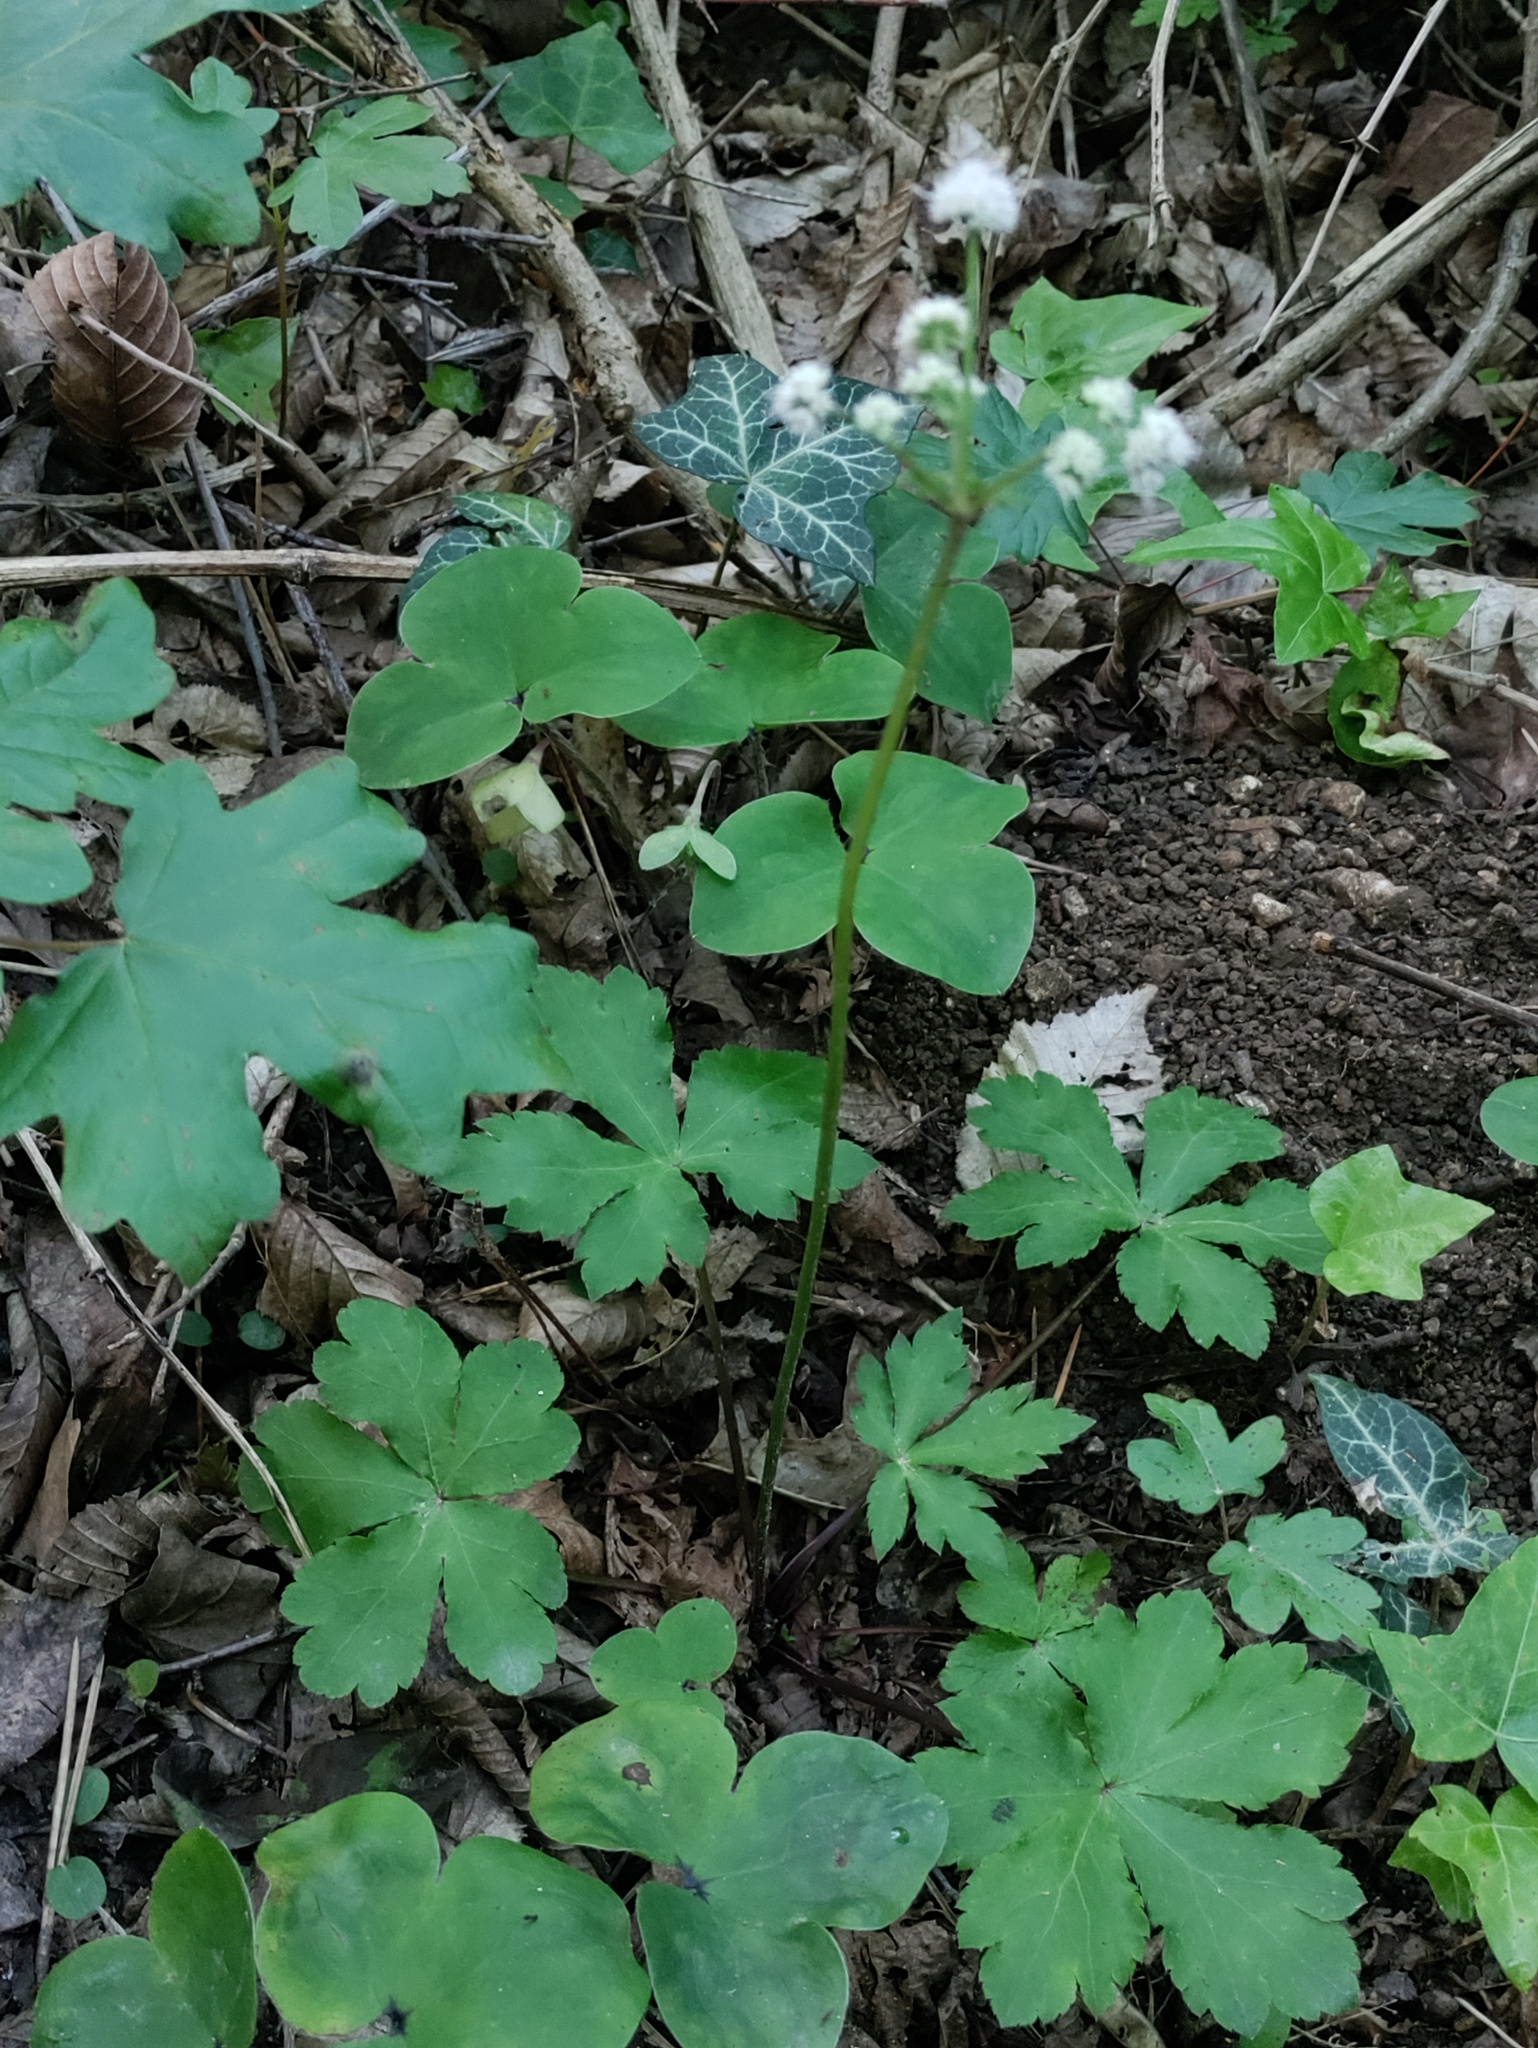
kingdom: Plantae
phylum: Tracheophyta
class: Magnoliopsida
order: Apiales
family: Apiaceae
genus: Sanicula
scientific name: Sanicula europaea
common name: Sanicle
